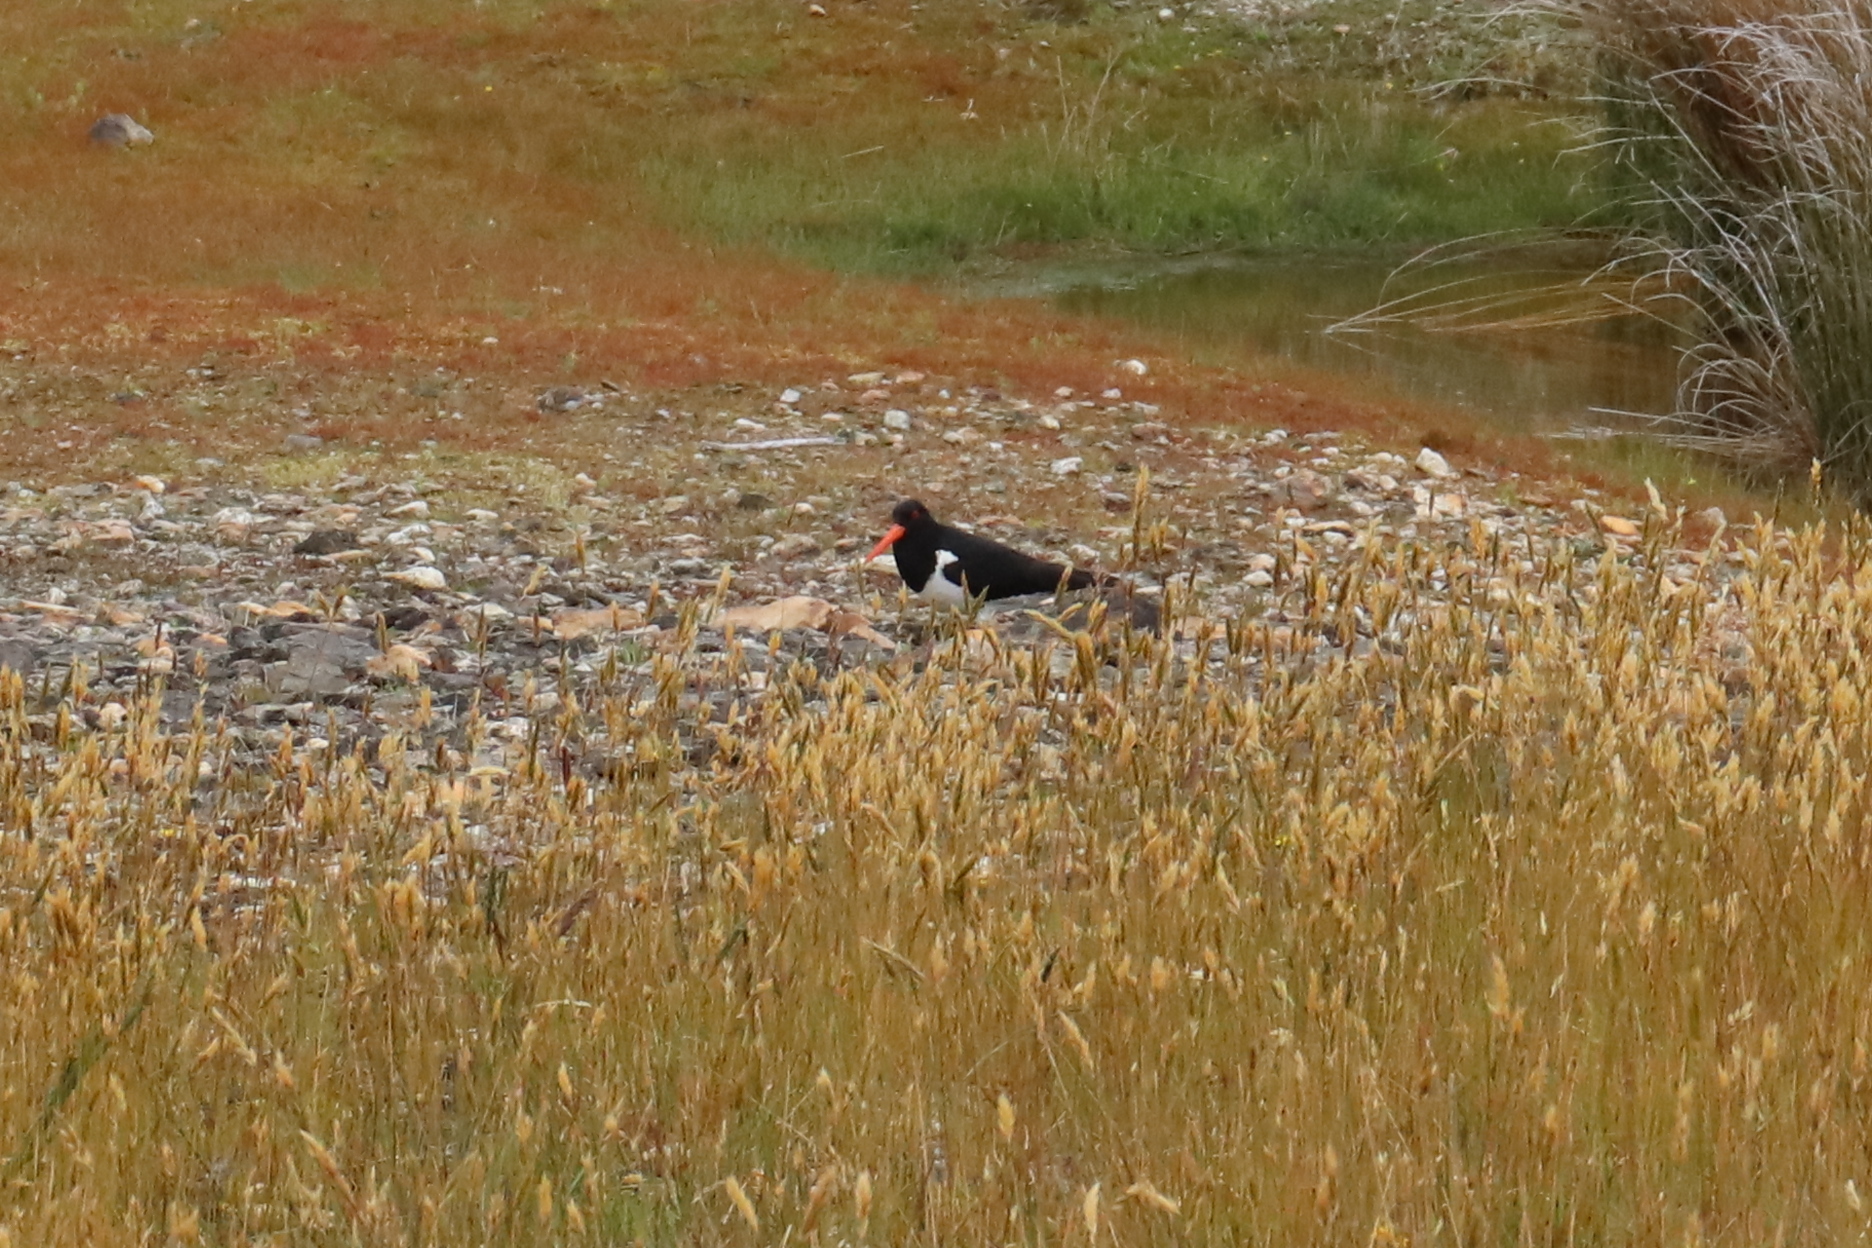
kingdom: Animalia
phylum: Chordata
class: Aves
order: Charadriiformes
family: Haematopodidae
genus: Haematopus
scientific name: Haematopus finschi
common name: South island oystercatcher
